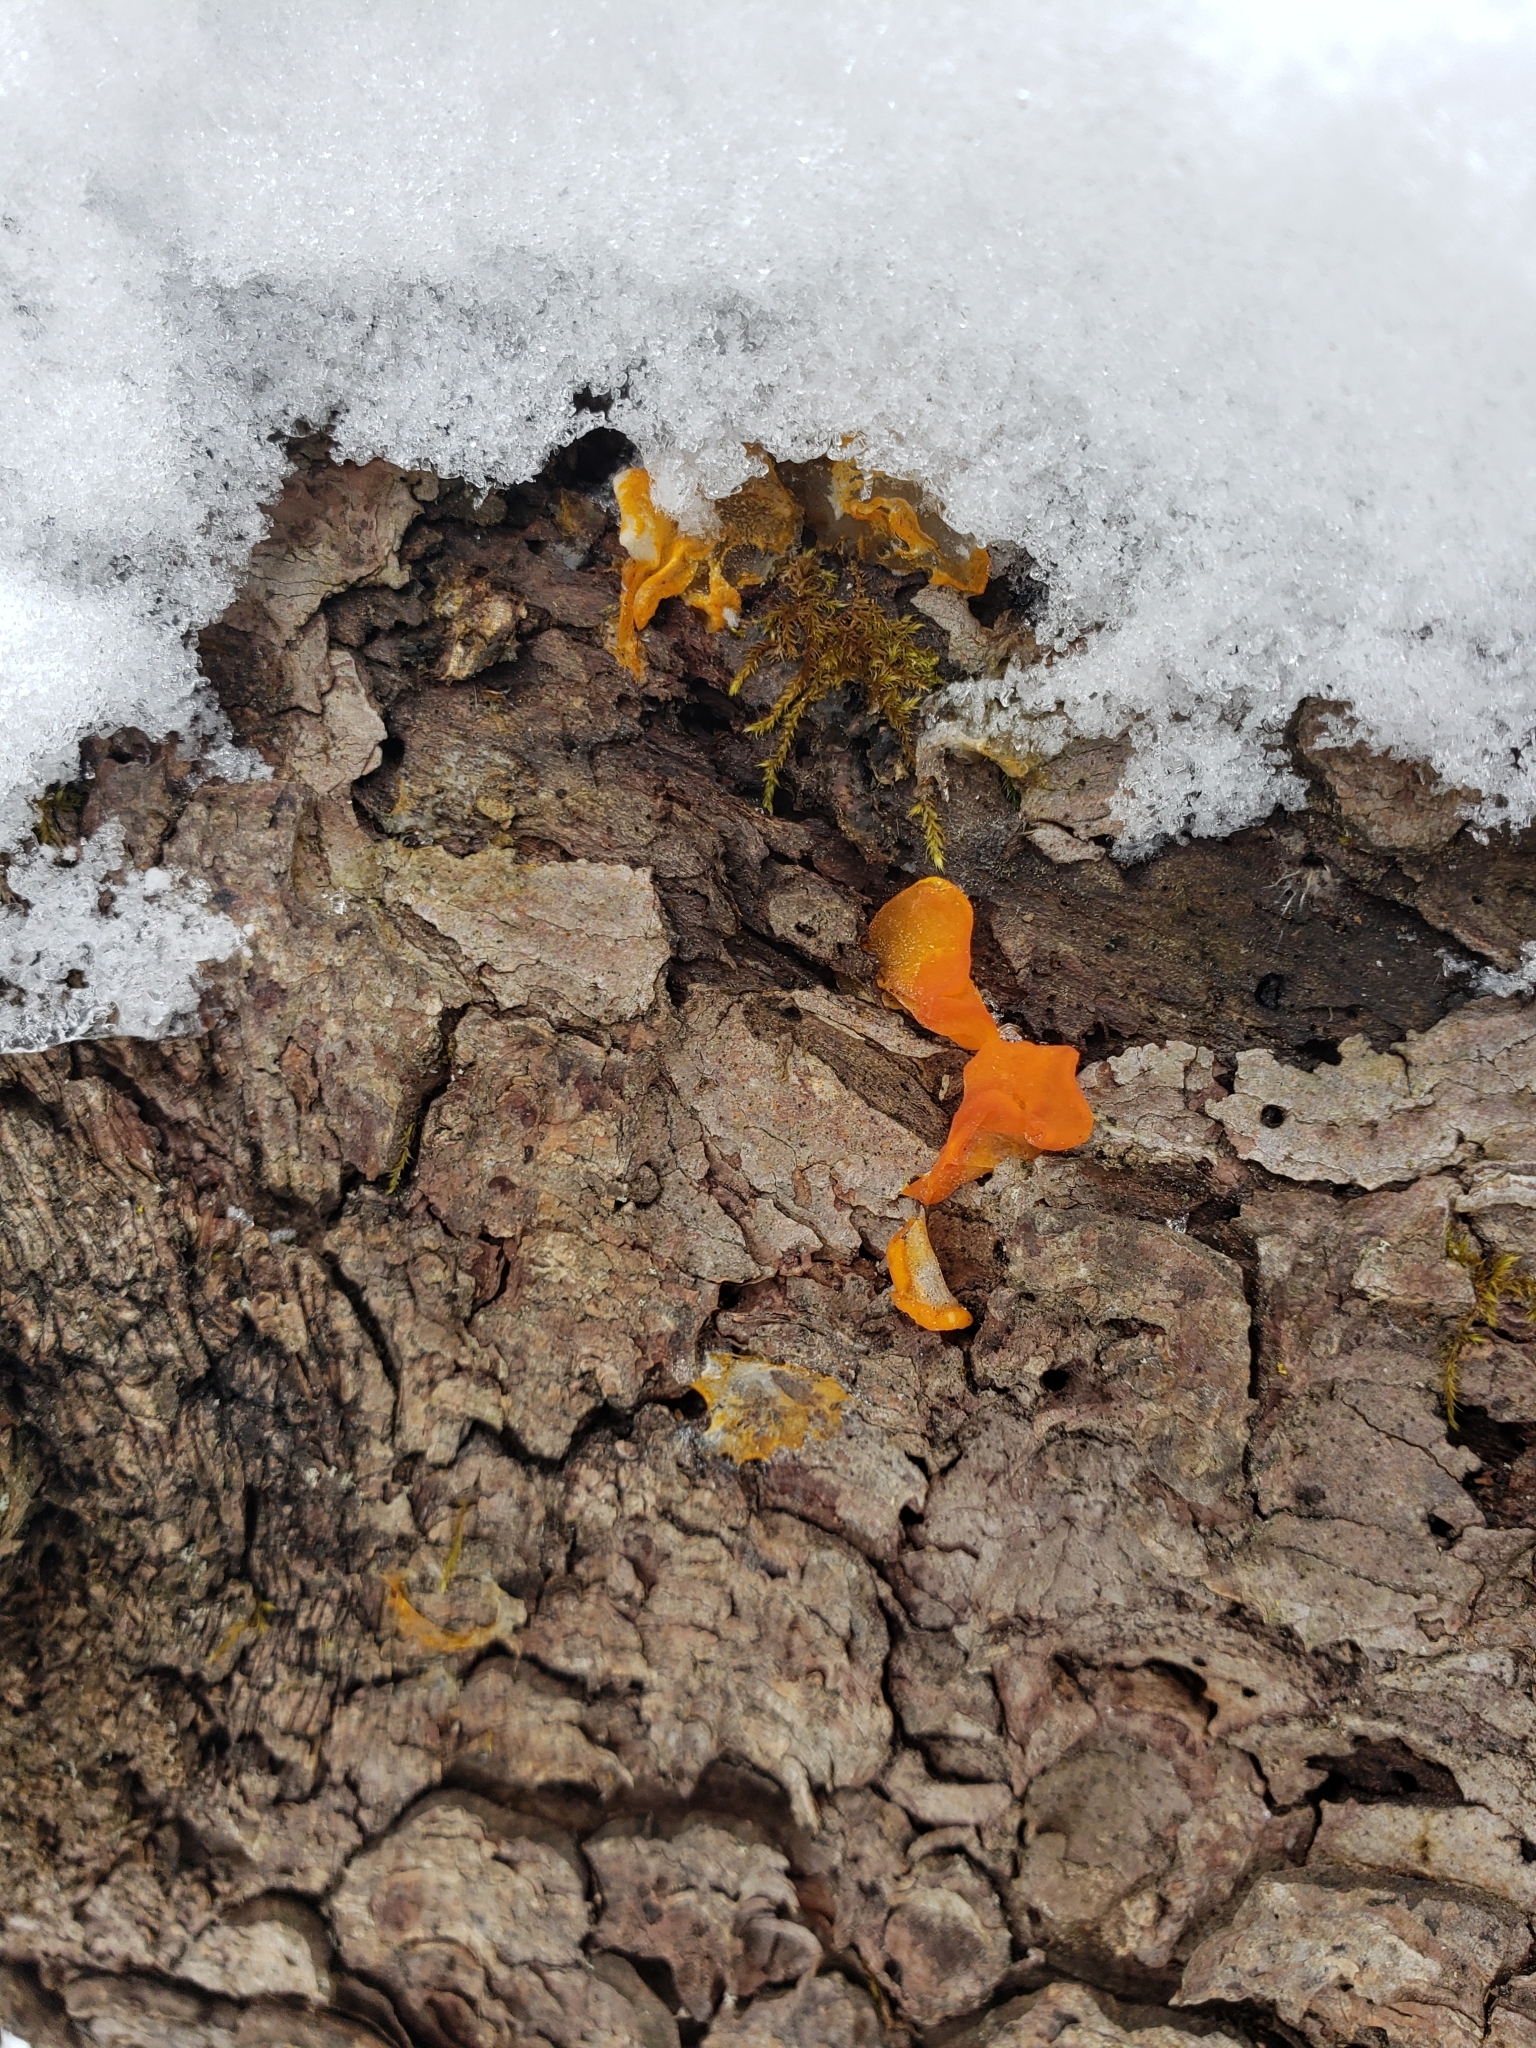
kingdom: Fungi
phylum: Basidiomycota
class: Dacrymycetes
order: Dacrymycetales
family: Dacrymycetaceae
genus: Dacrymyces
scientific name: Dacrymyces chrysospermus
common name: Orange jelly spot
